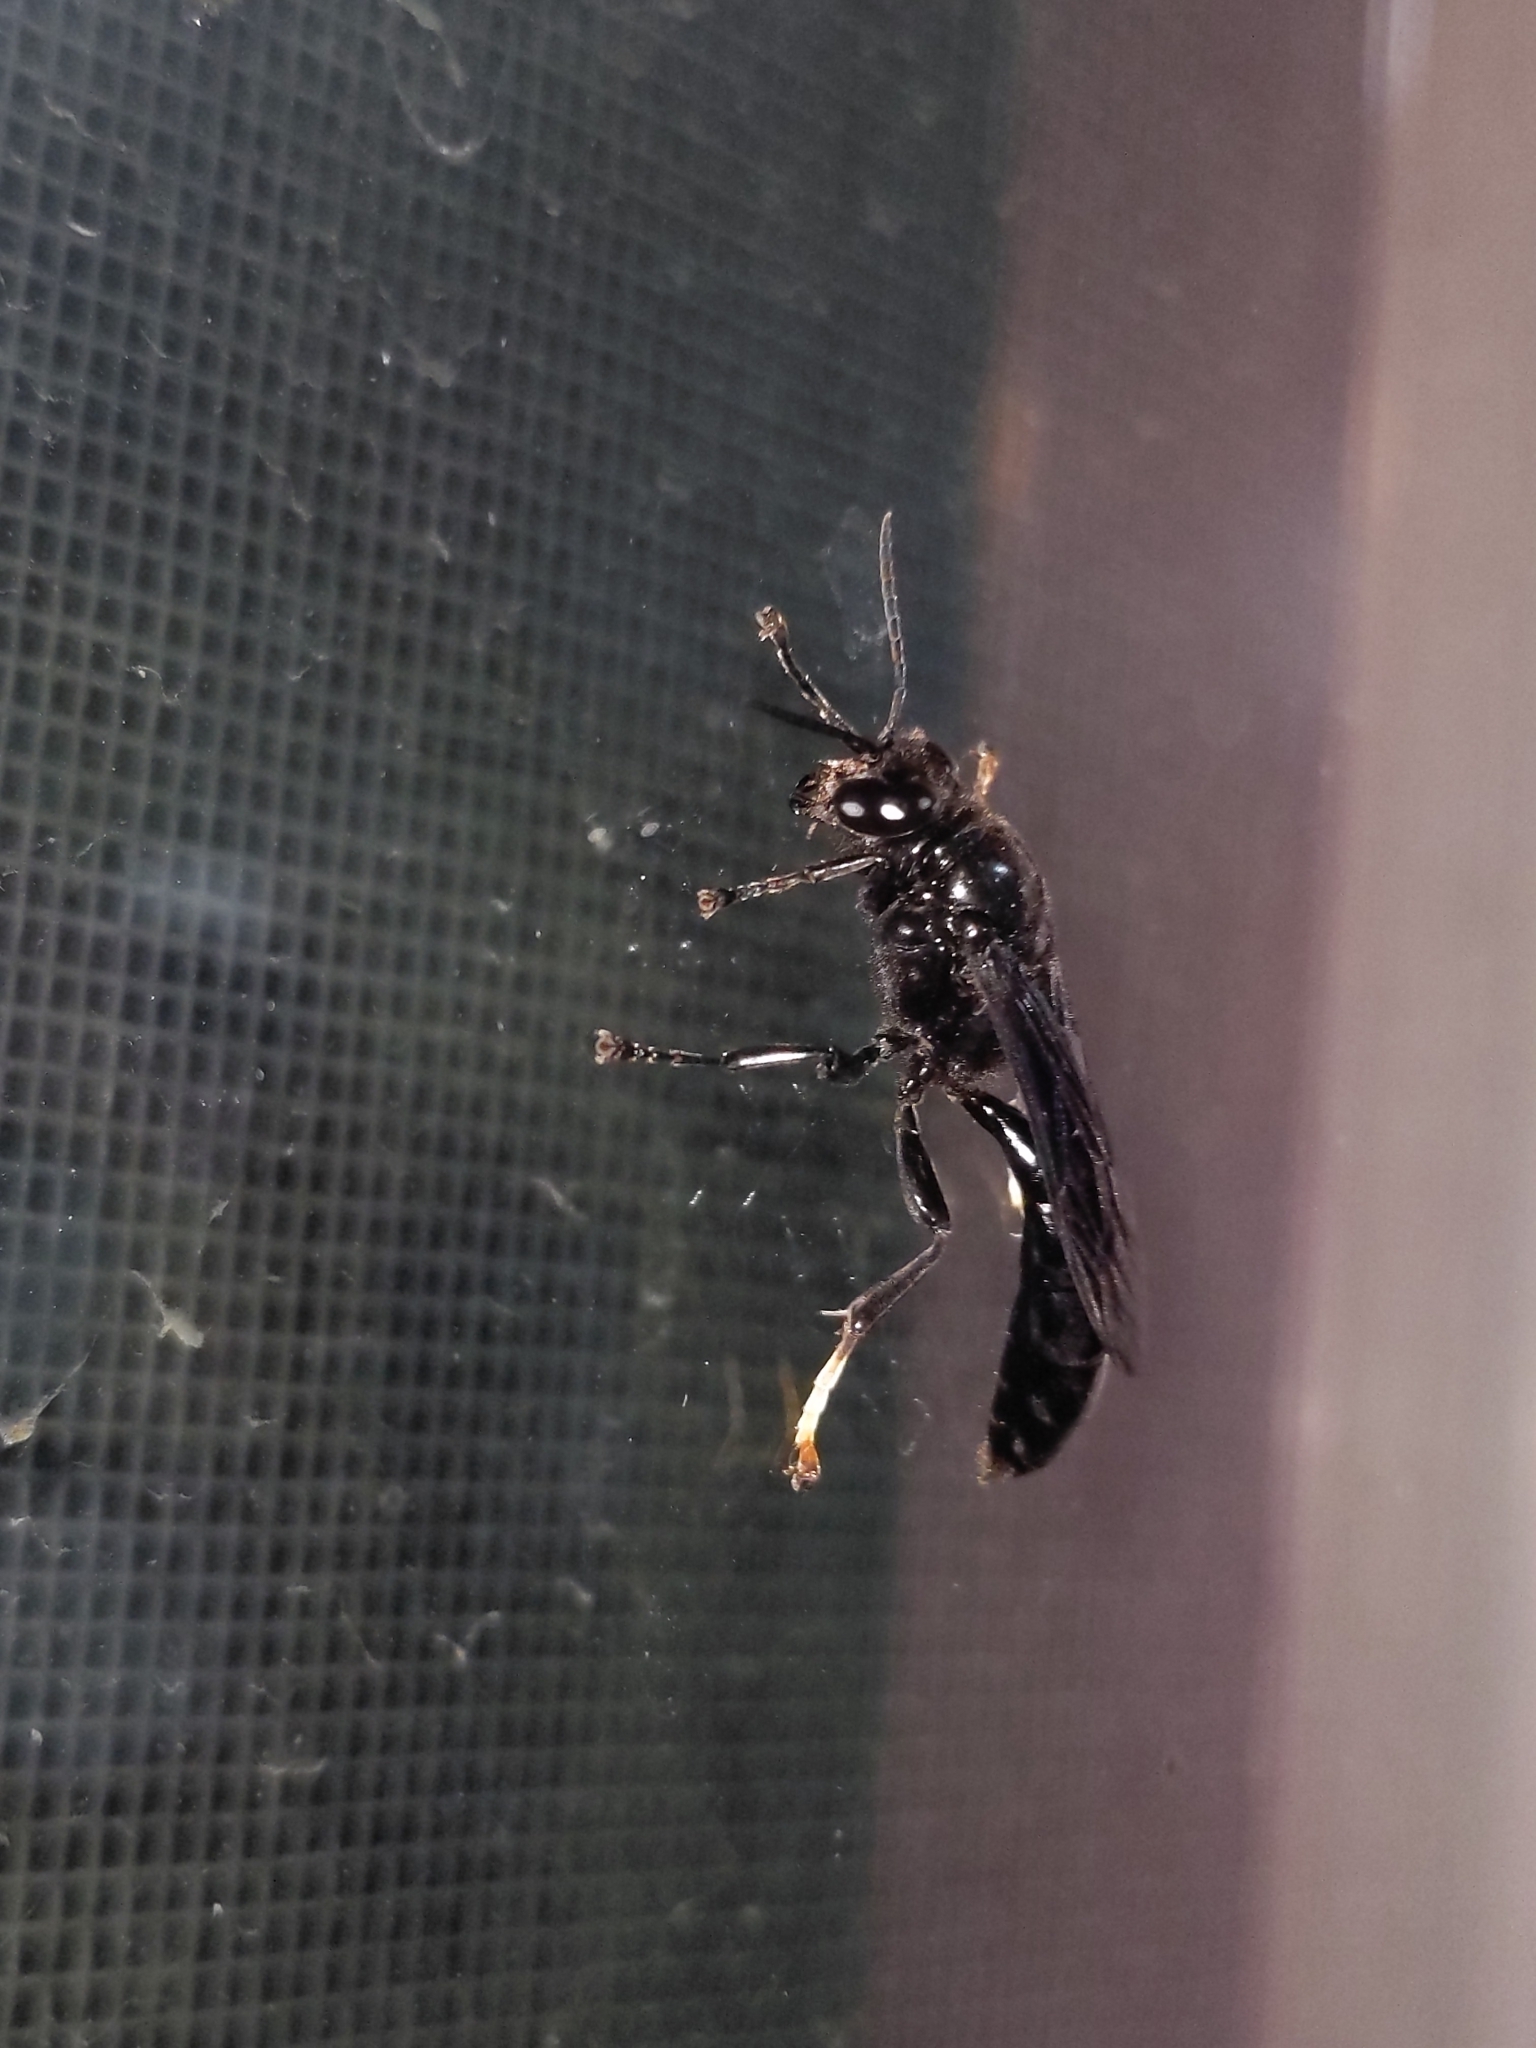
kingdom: Animalia
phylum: Arthropoda
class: Insecta
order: Hymenoptera
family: Crabronidae
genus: Trypoxylon
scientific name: Trypoxylon politum
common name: Organ-pipe mud-dauber wasp
